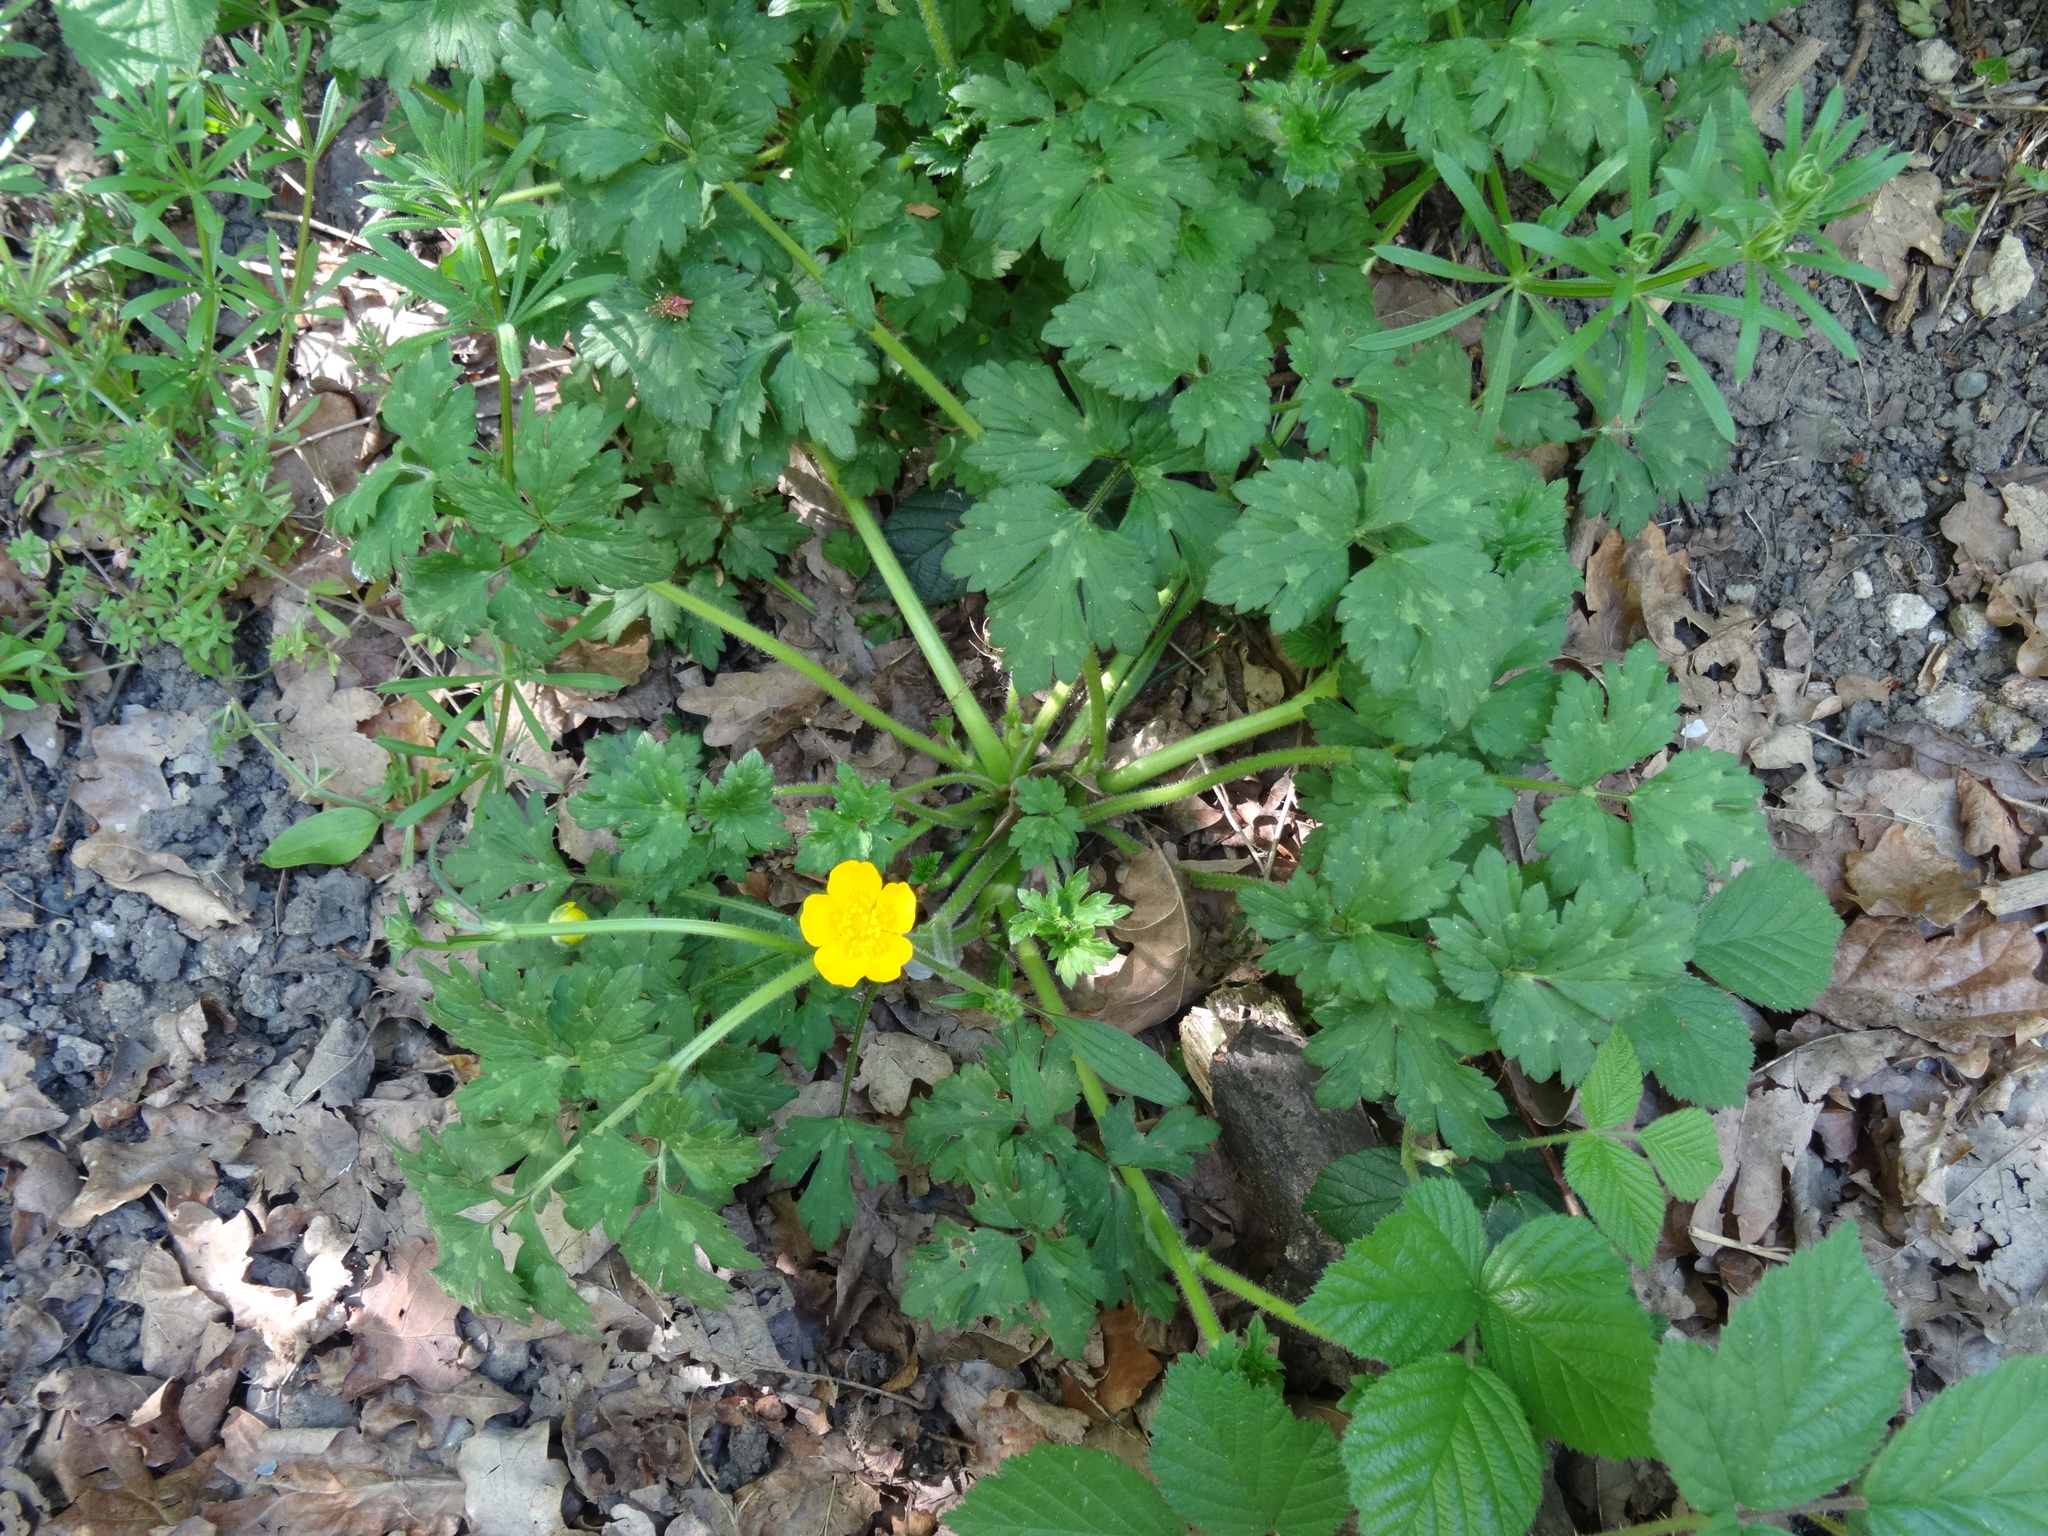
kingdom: Plantae
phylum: Tracheophyta
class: Magnoliopsida
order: Ranunculales
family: Ranunculaceae
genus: Ranunculus
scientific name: Ranunculus repens
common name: Creeping buttercup
